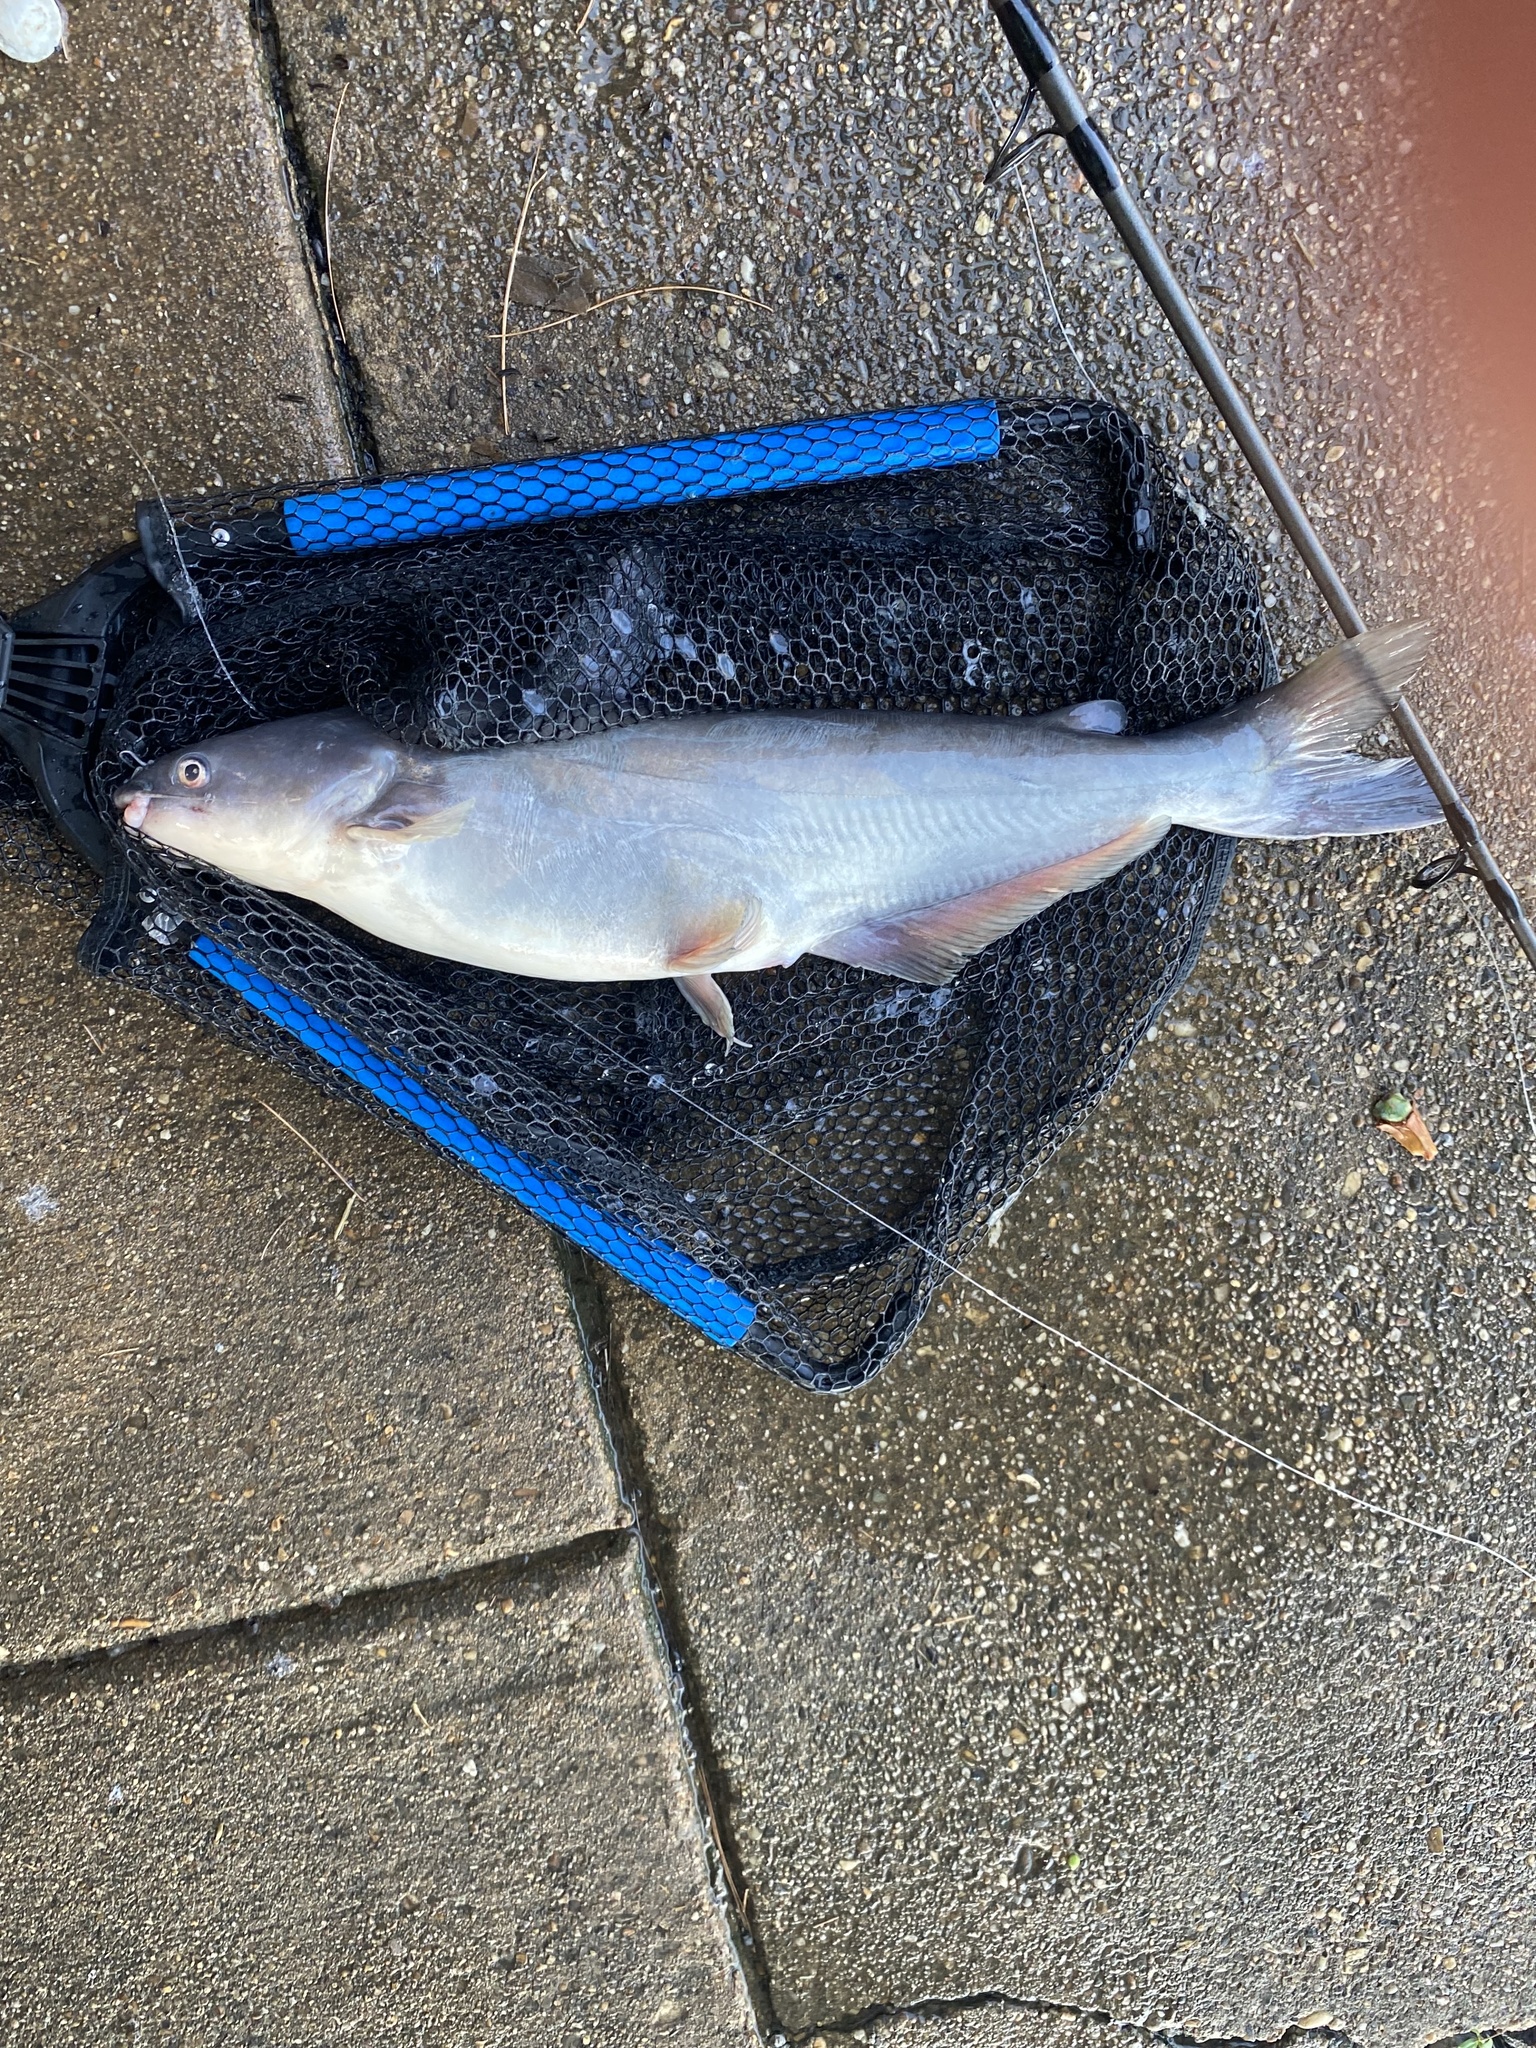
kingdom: Animalia
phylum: Chordata
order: Siluriformes
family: Ictaluridae
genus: Ictalurus
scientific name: Ictalurus furcatus
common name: Blue catfish
